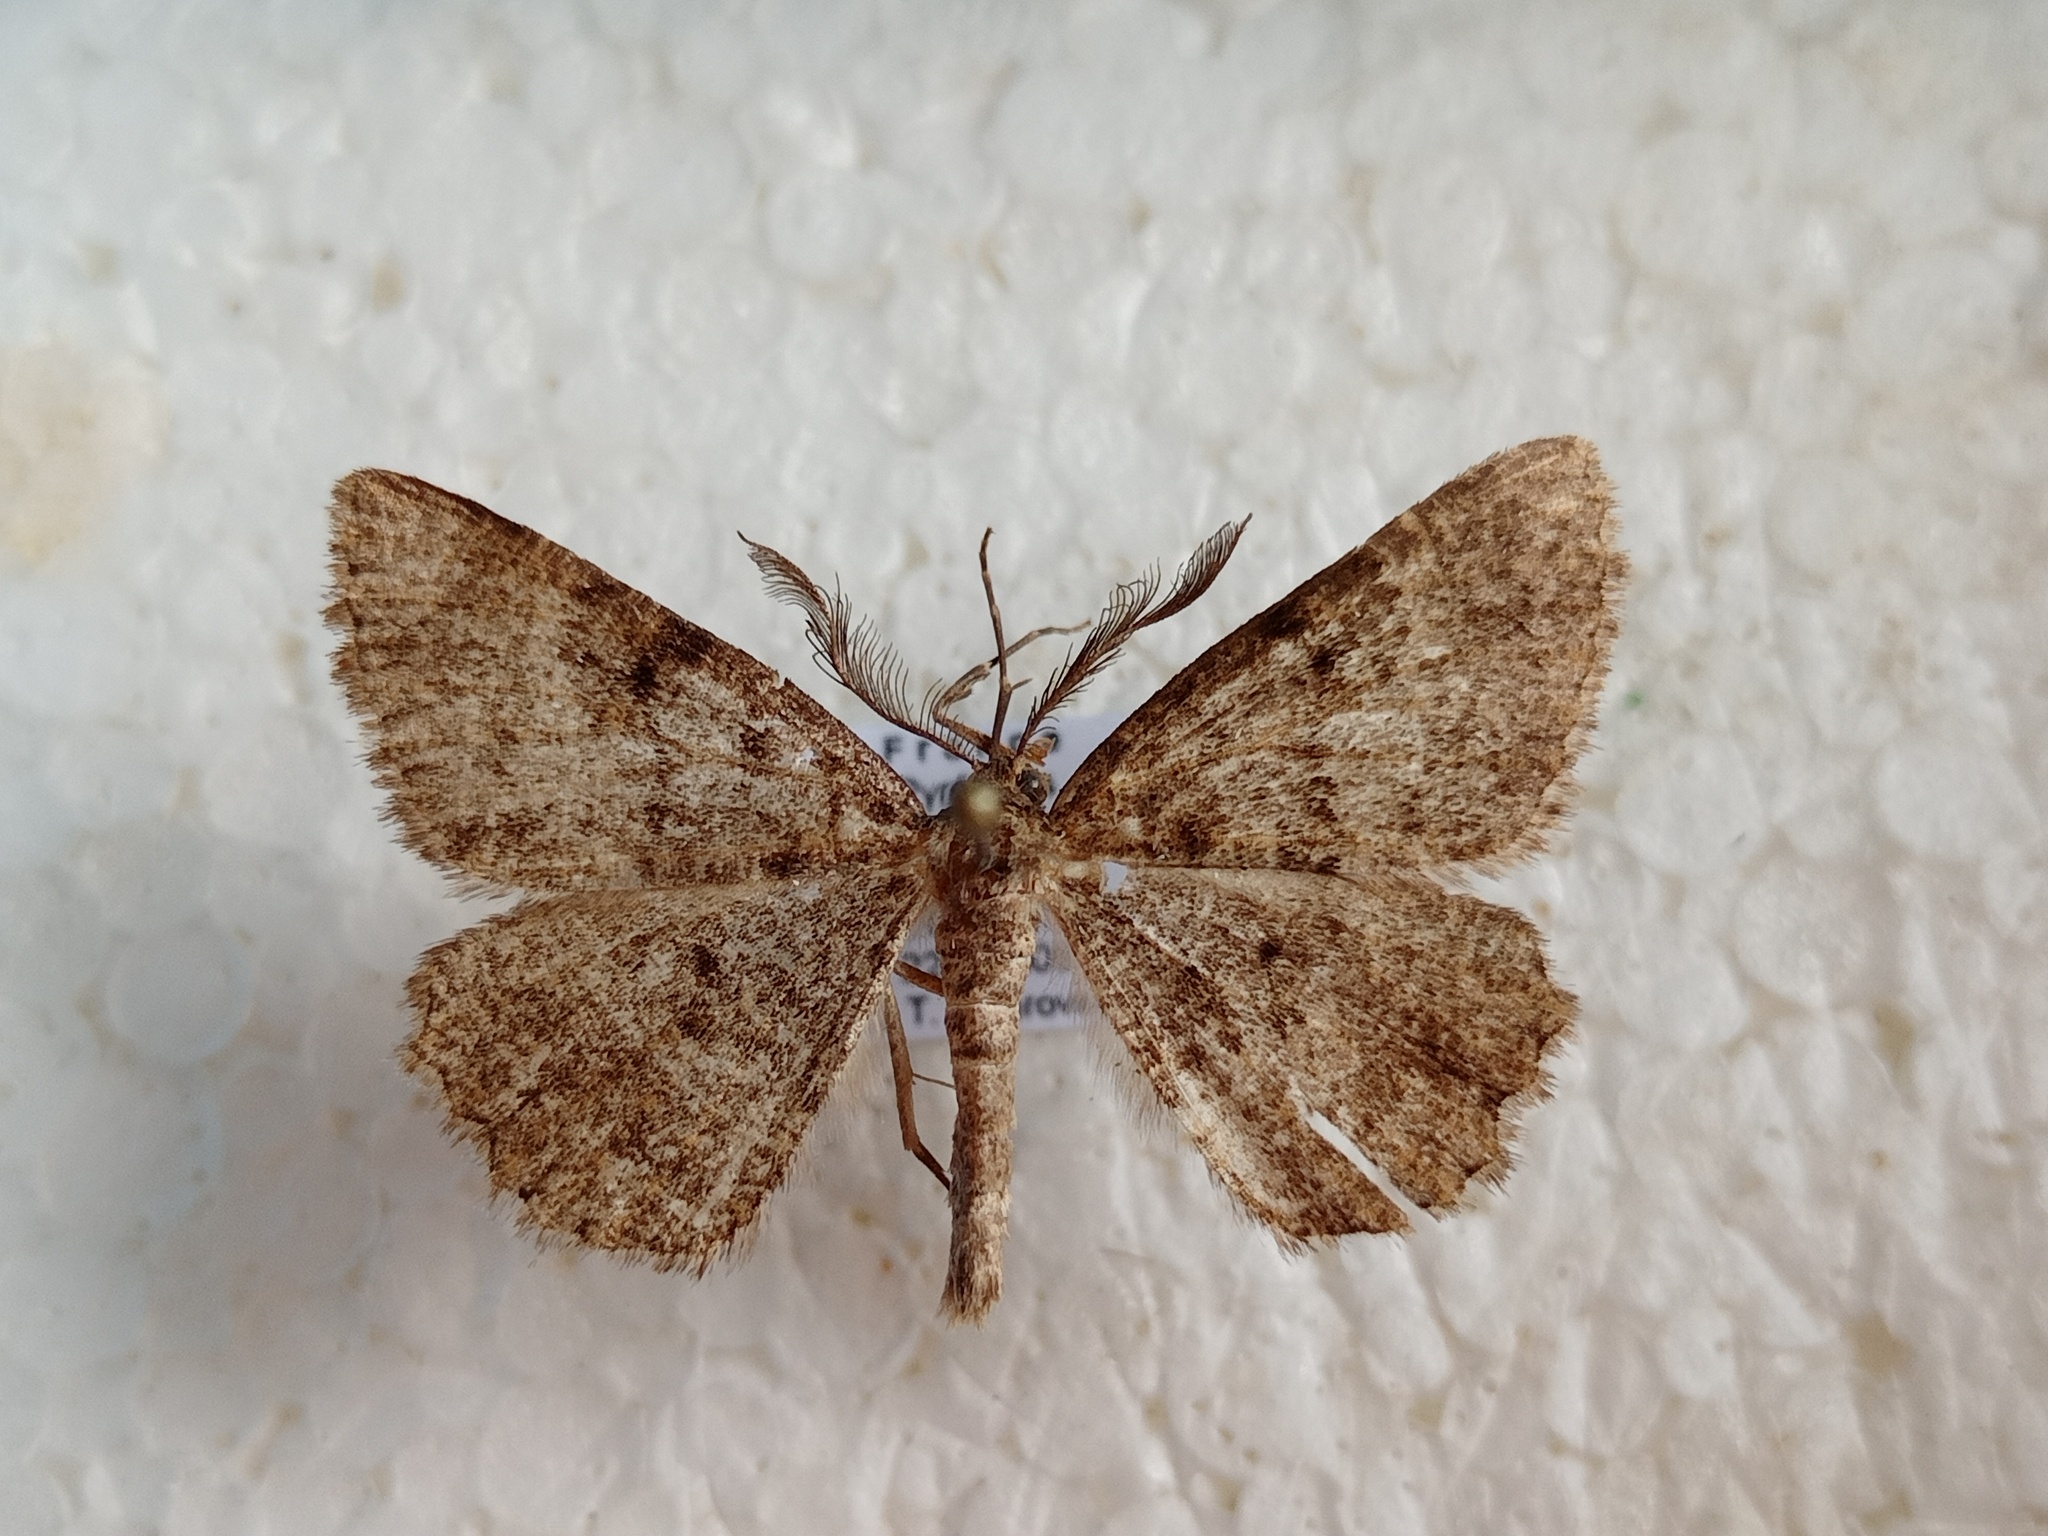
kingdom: Animalia
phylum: Arthropoda
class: Insecta
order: Lepidoptera
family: Geometridae
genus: Selidosema
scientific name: Selidosema taeniolaria
